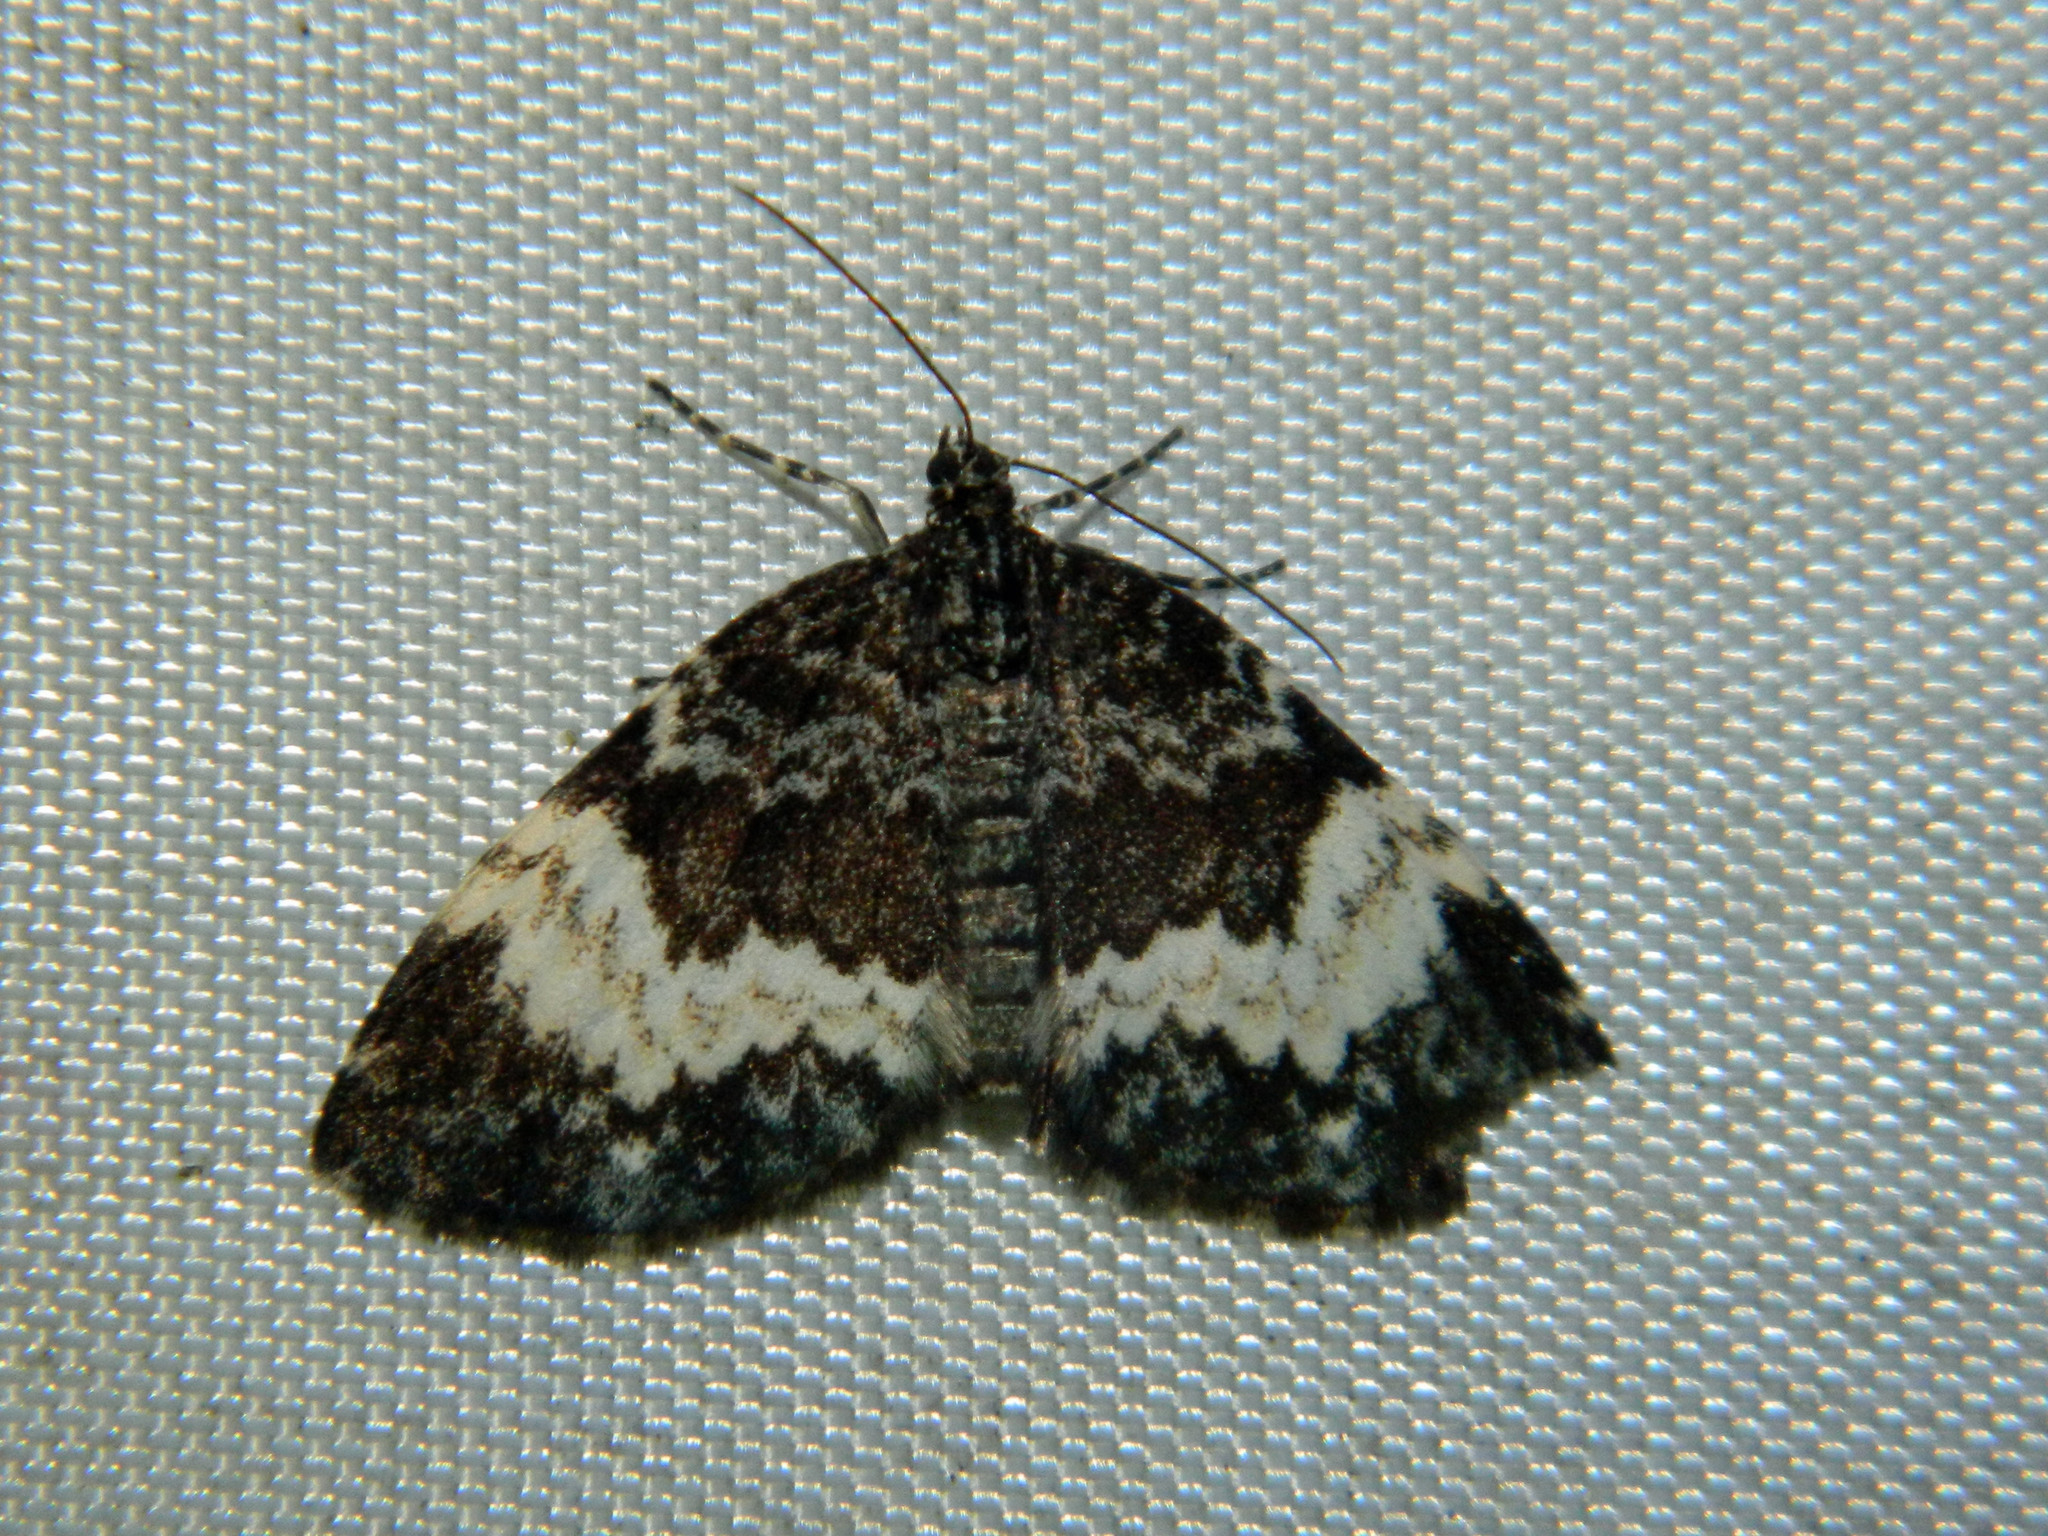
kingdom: Animalia
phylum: Arthropoda
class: Insecta
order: Lepidoptera
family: Geometridae
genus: Spargania
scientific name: Spargania luctuata
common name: White-banded carpet
